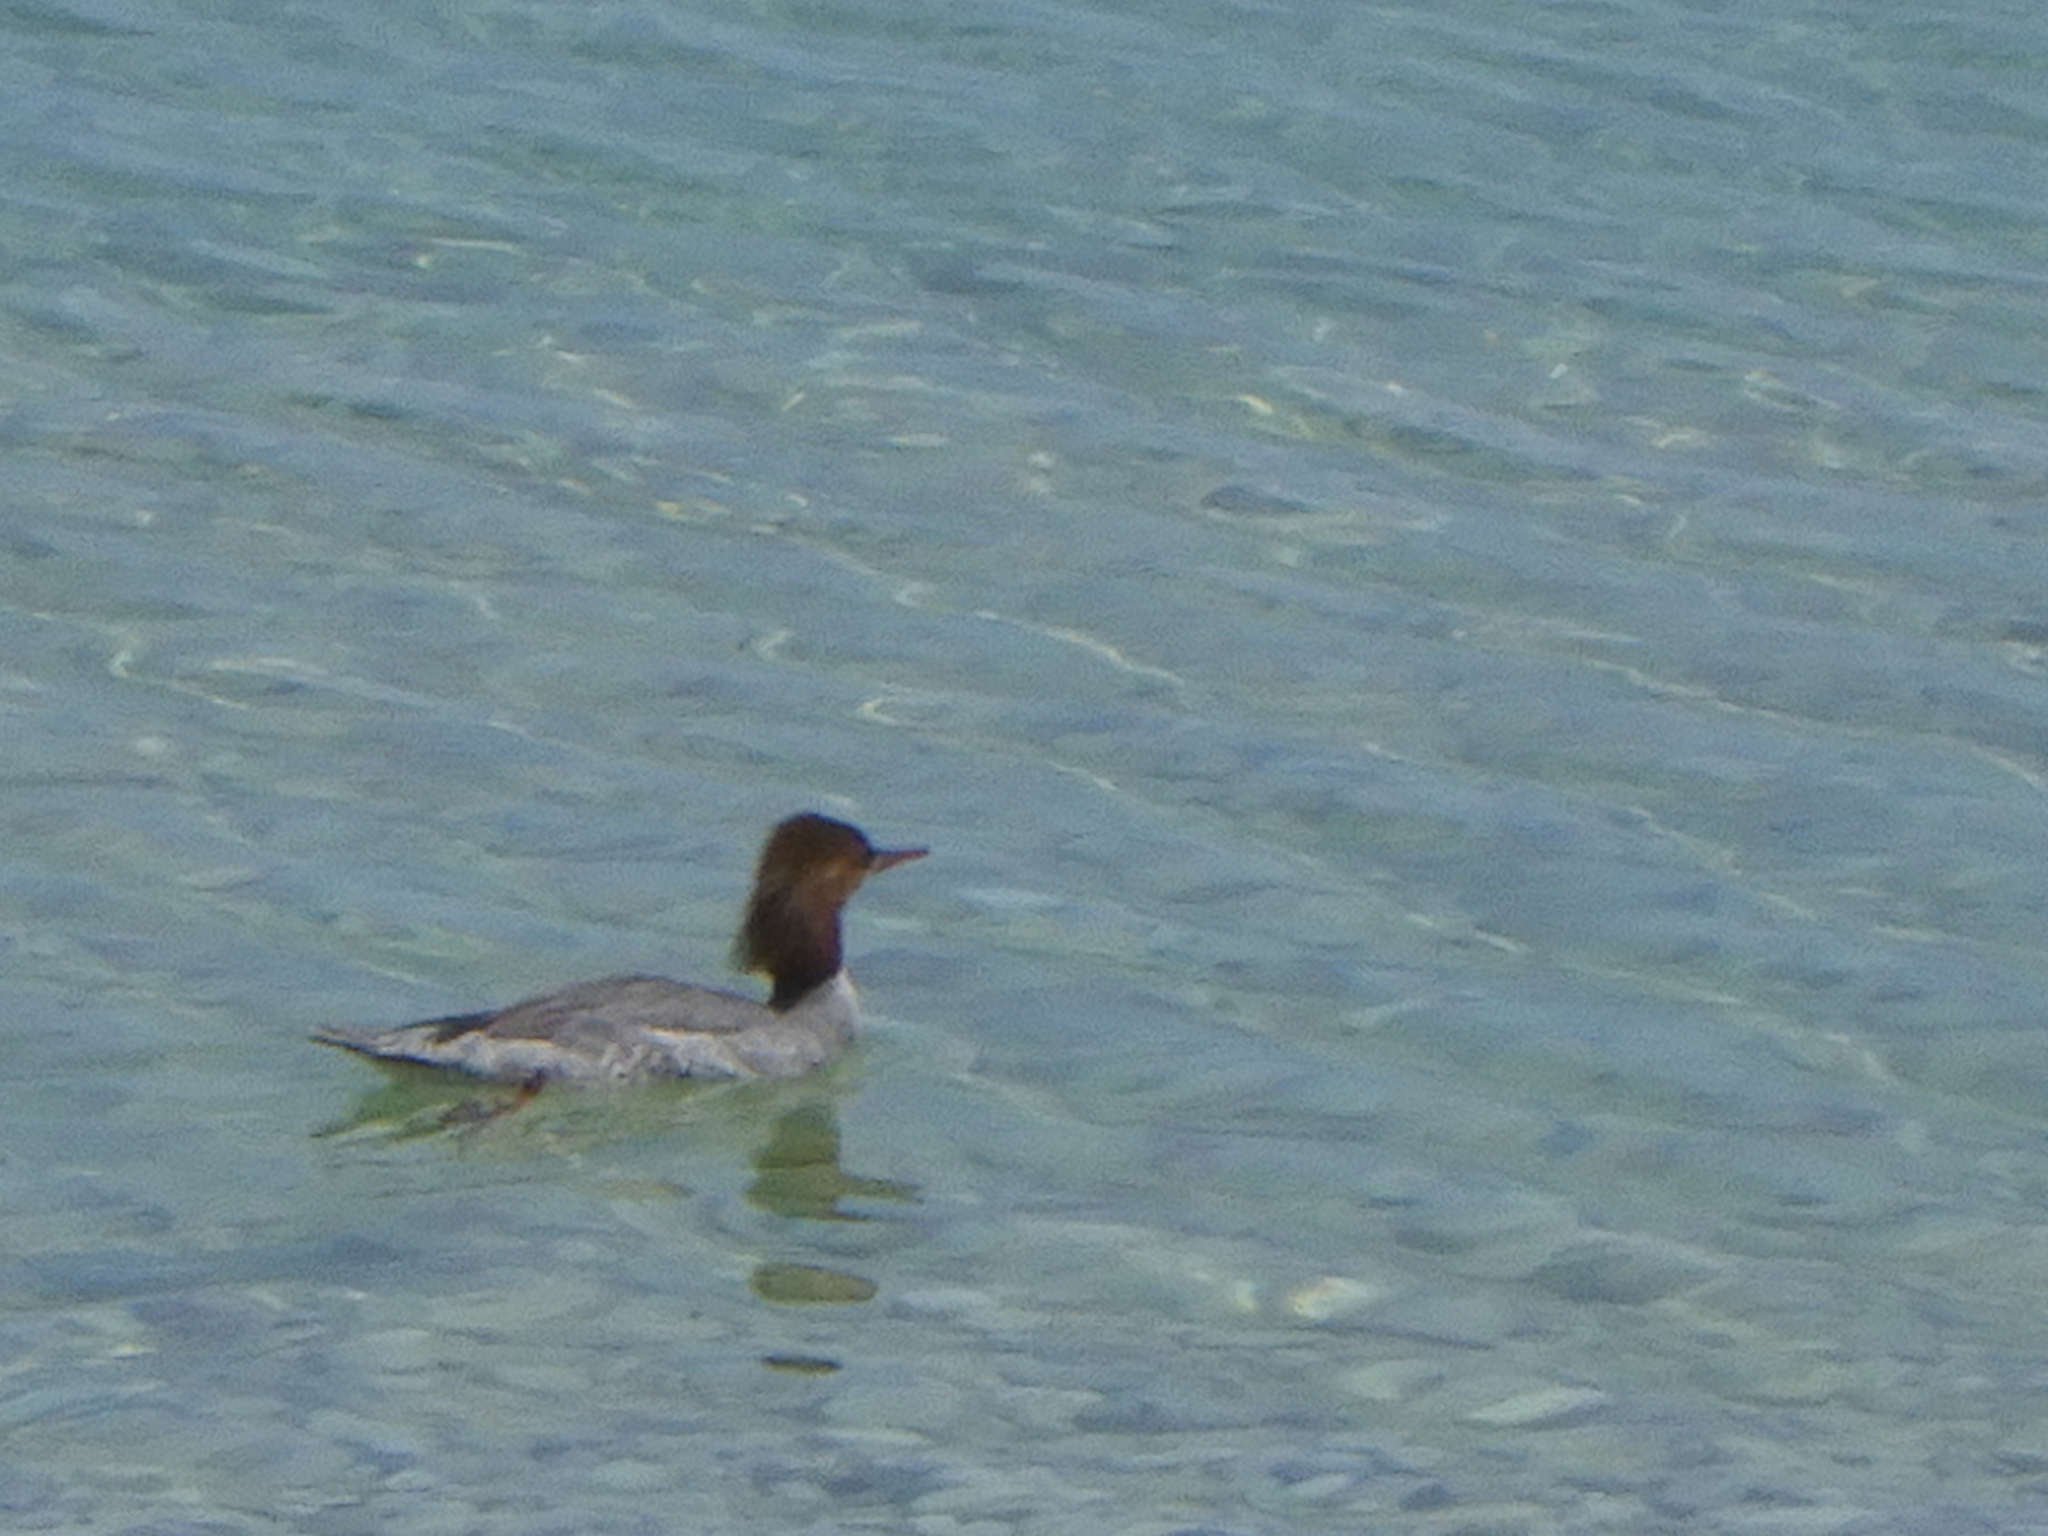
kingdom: Animalia
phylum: Chordata
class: Aves
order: Anseriformes
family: Anatidae
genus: Mergus
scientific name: Mergus merganser
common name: Common merganser
